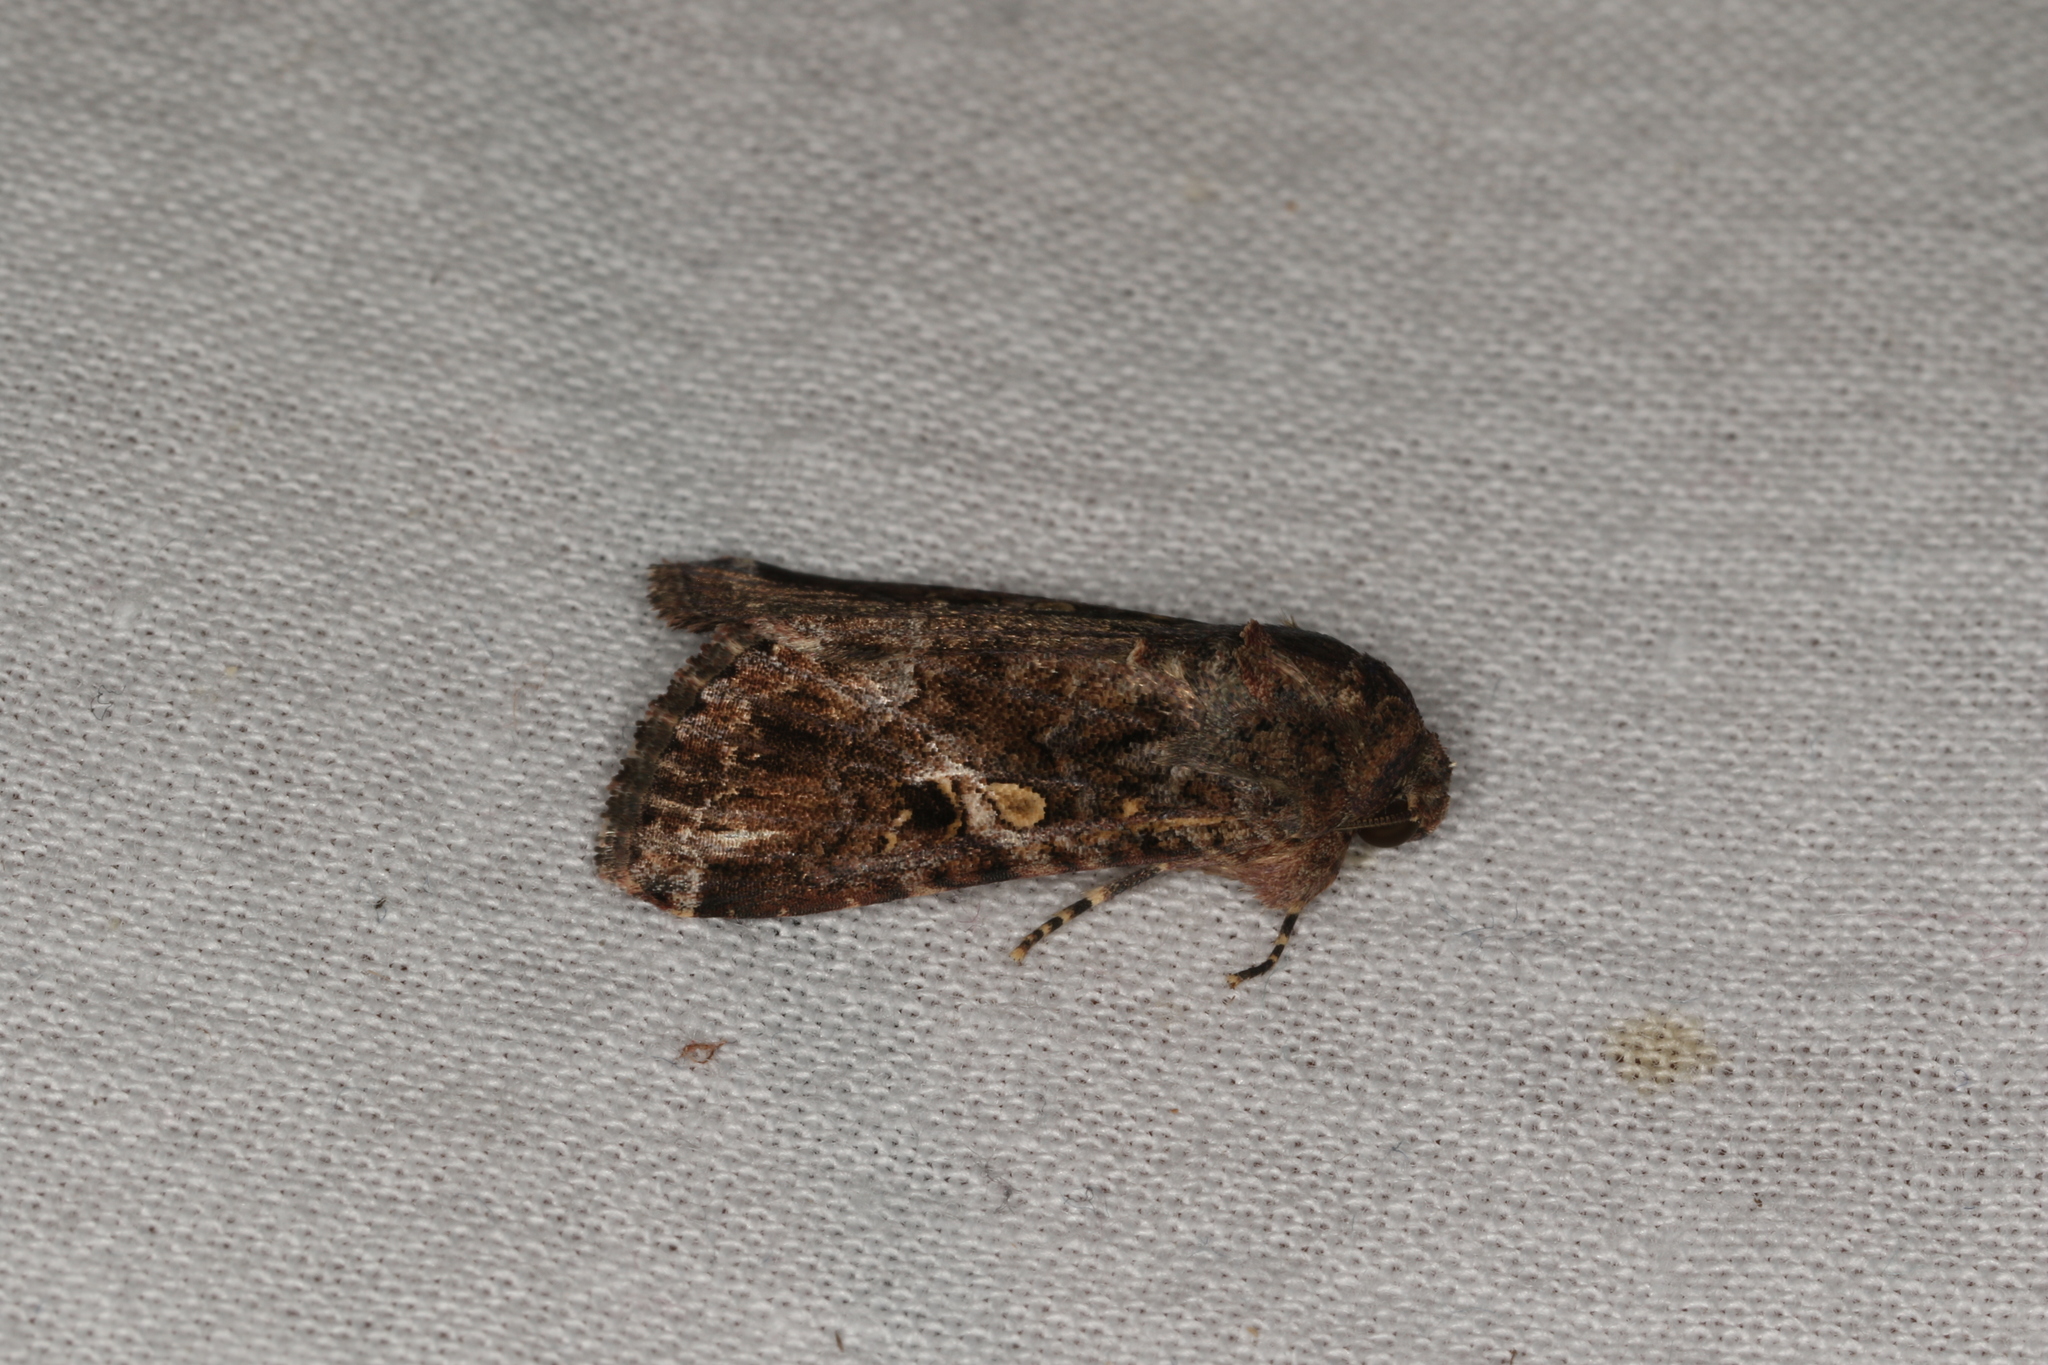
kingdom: Animalia
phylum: Arthropoda
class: Insecta
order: Lepidoptera
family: Noctuidae
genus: Spodoptera
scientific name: Spodoptera mauritia
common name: Lawn armyworm
